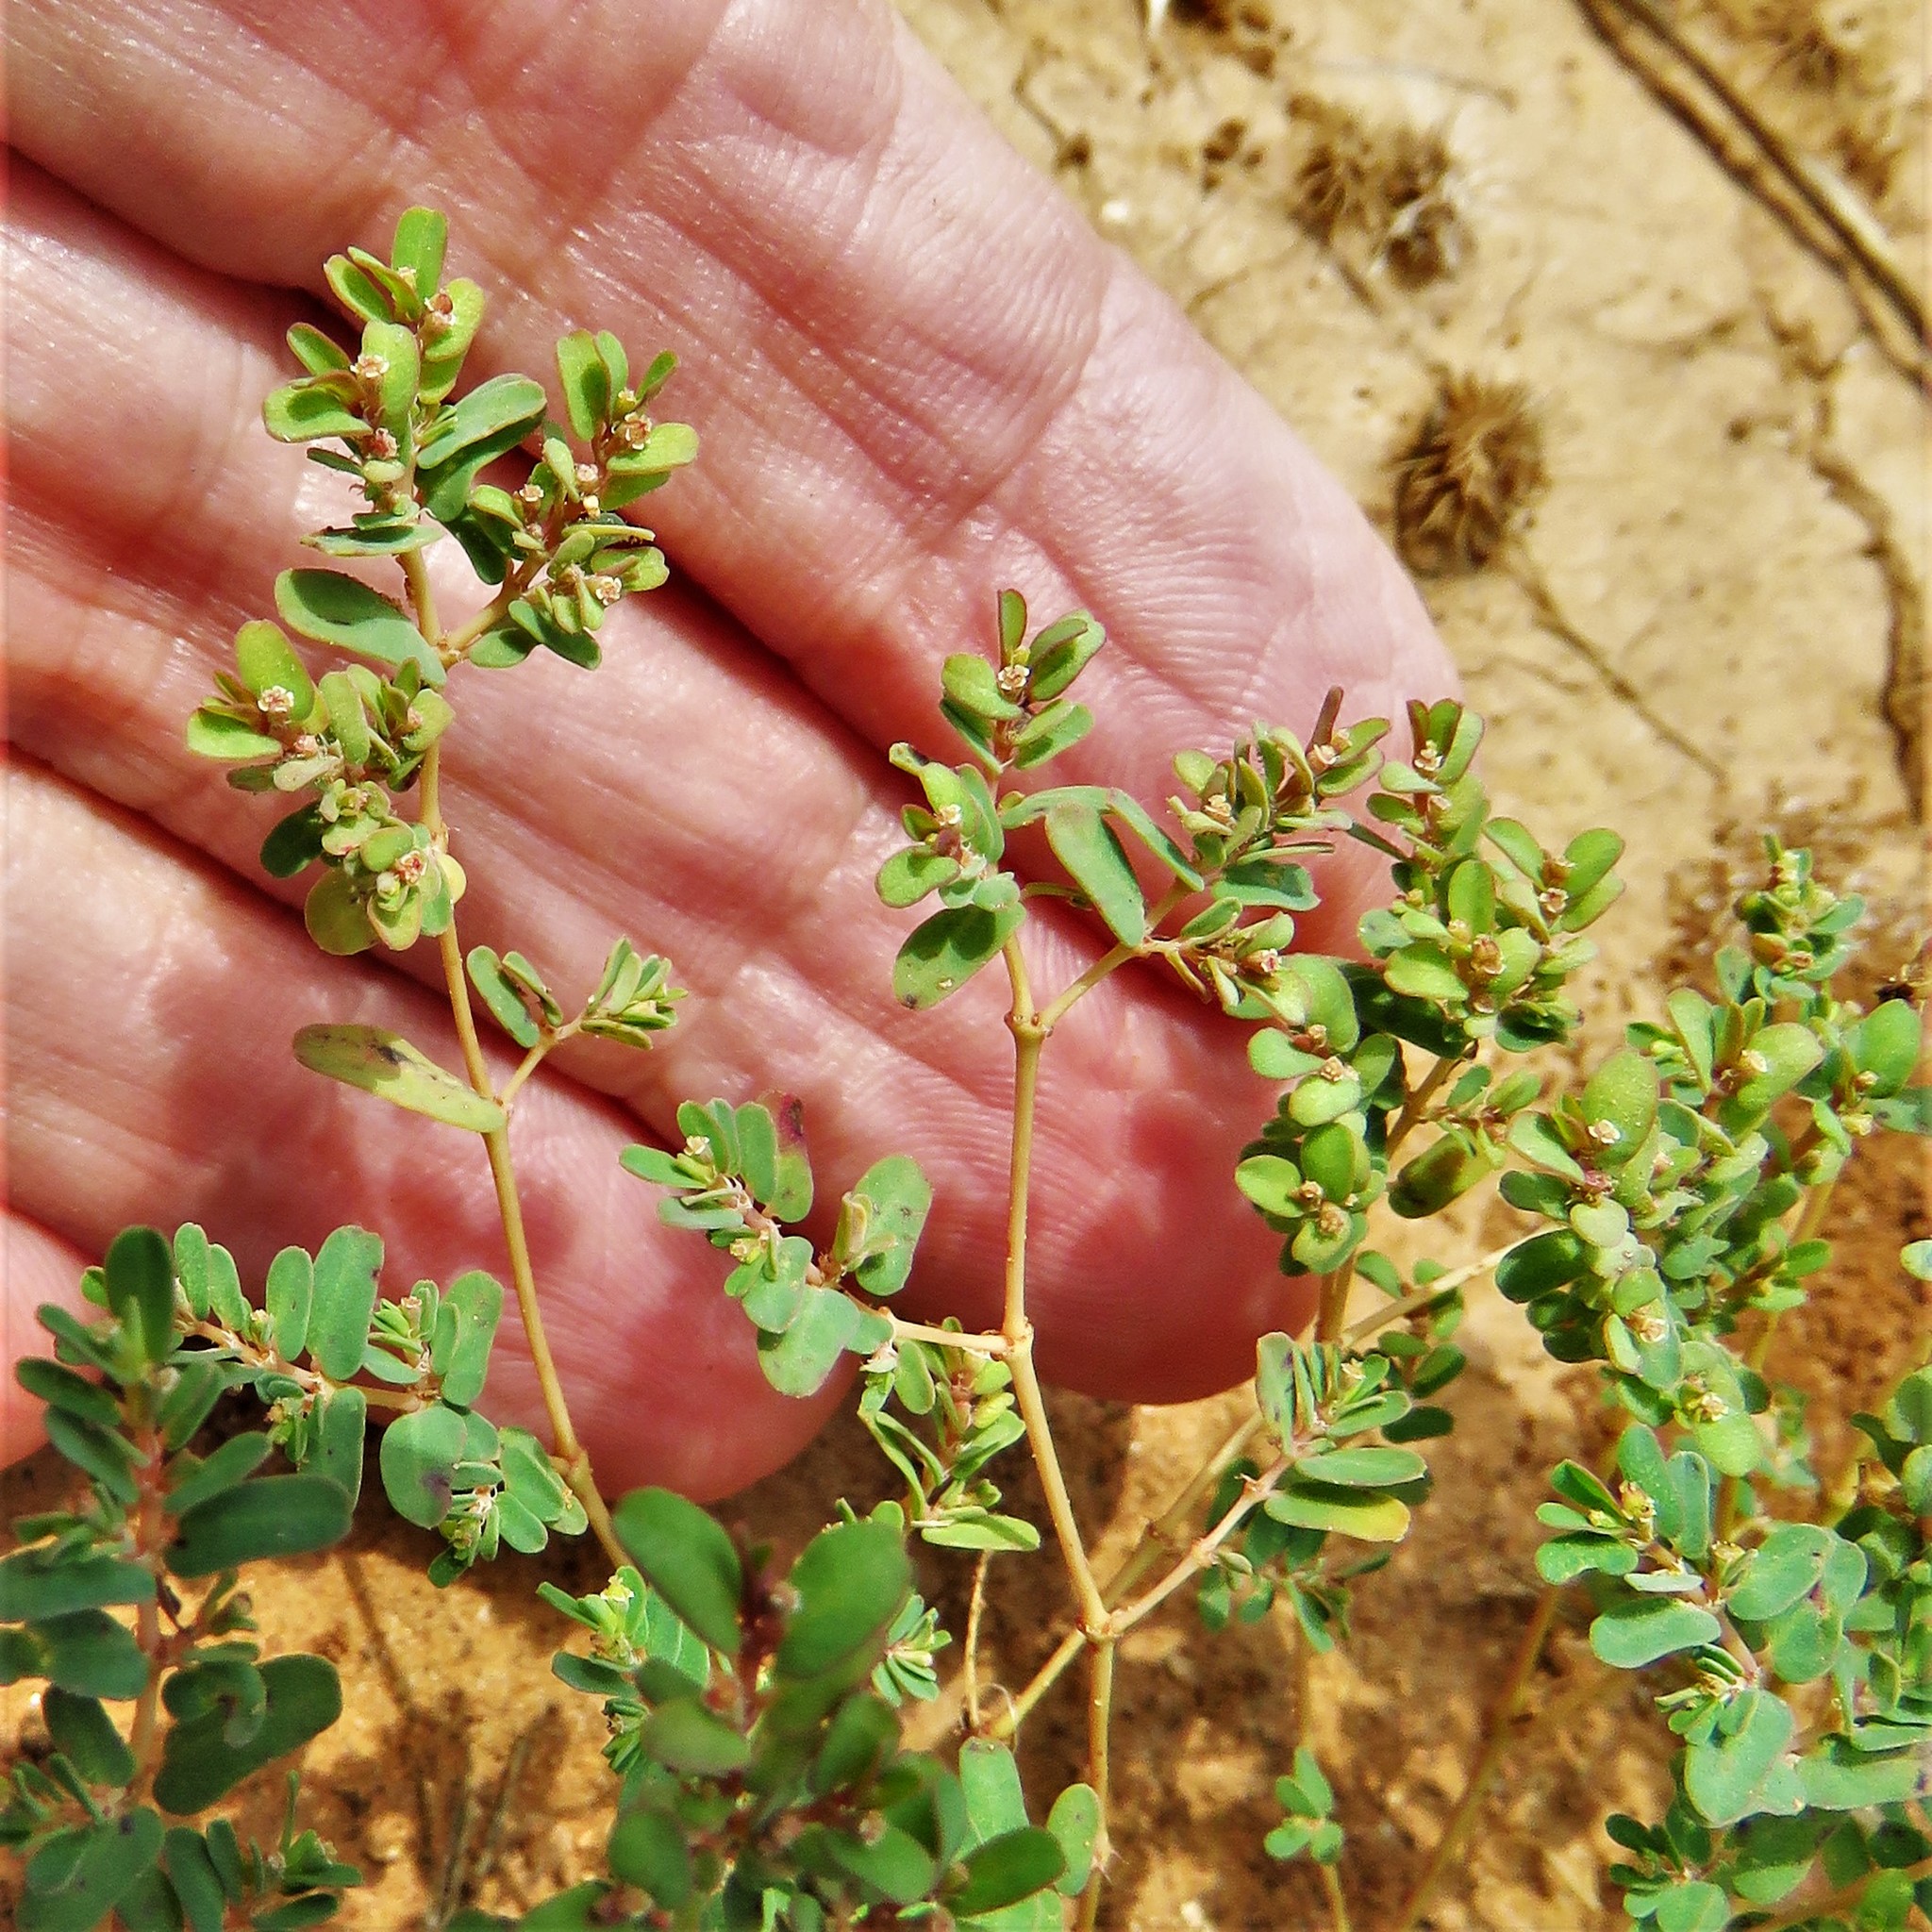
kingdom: Plantae
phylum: Tracheophyta
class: Magnoliopsida
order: Malpighiales
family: Euphorbiaceae
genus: Euphorbia
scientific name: Euphorbia glyptosperma
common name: Corrugate-seeded spurge
